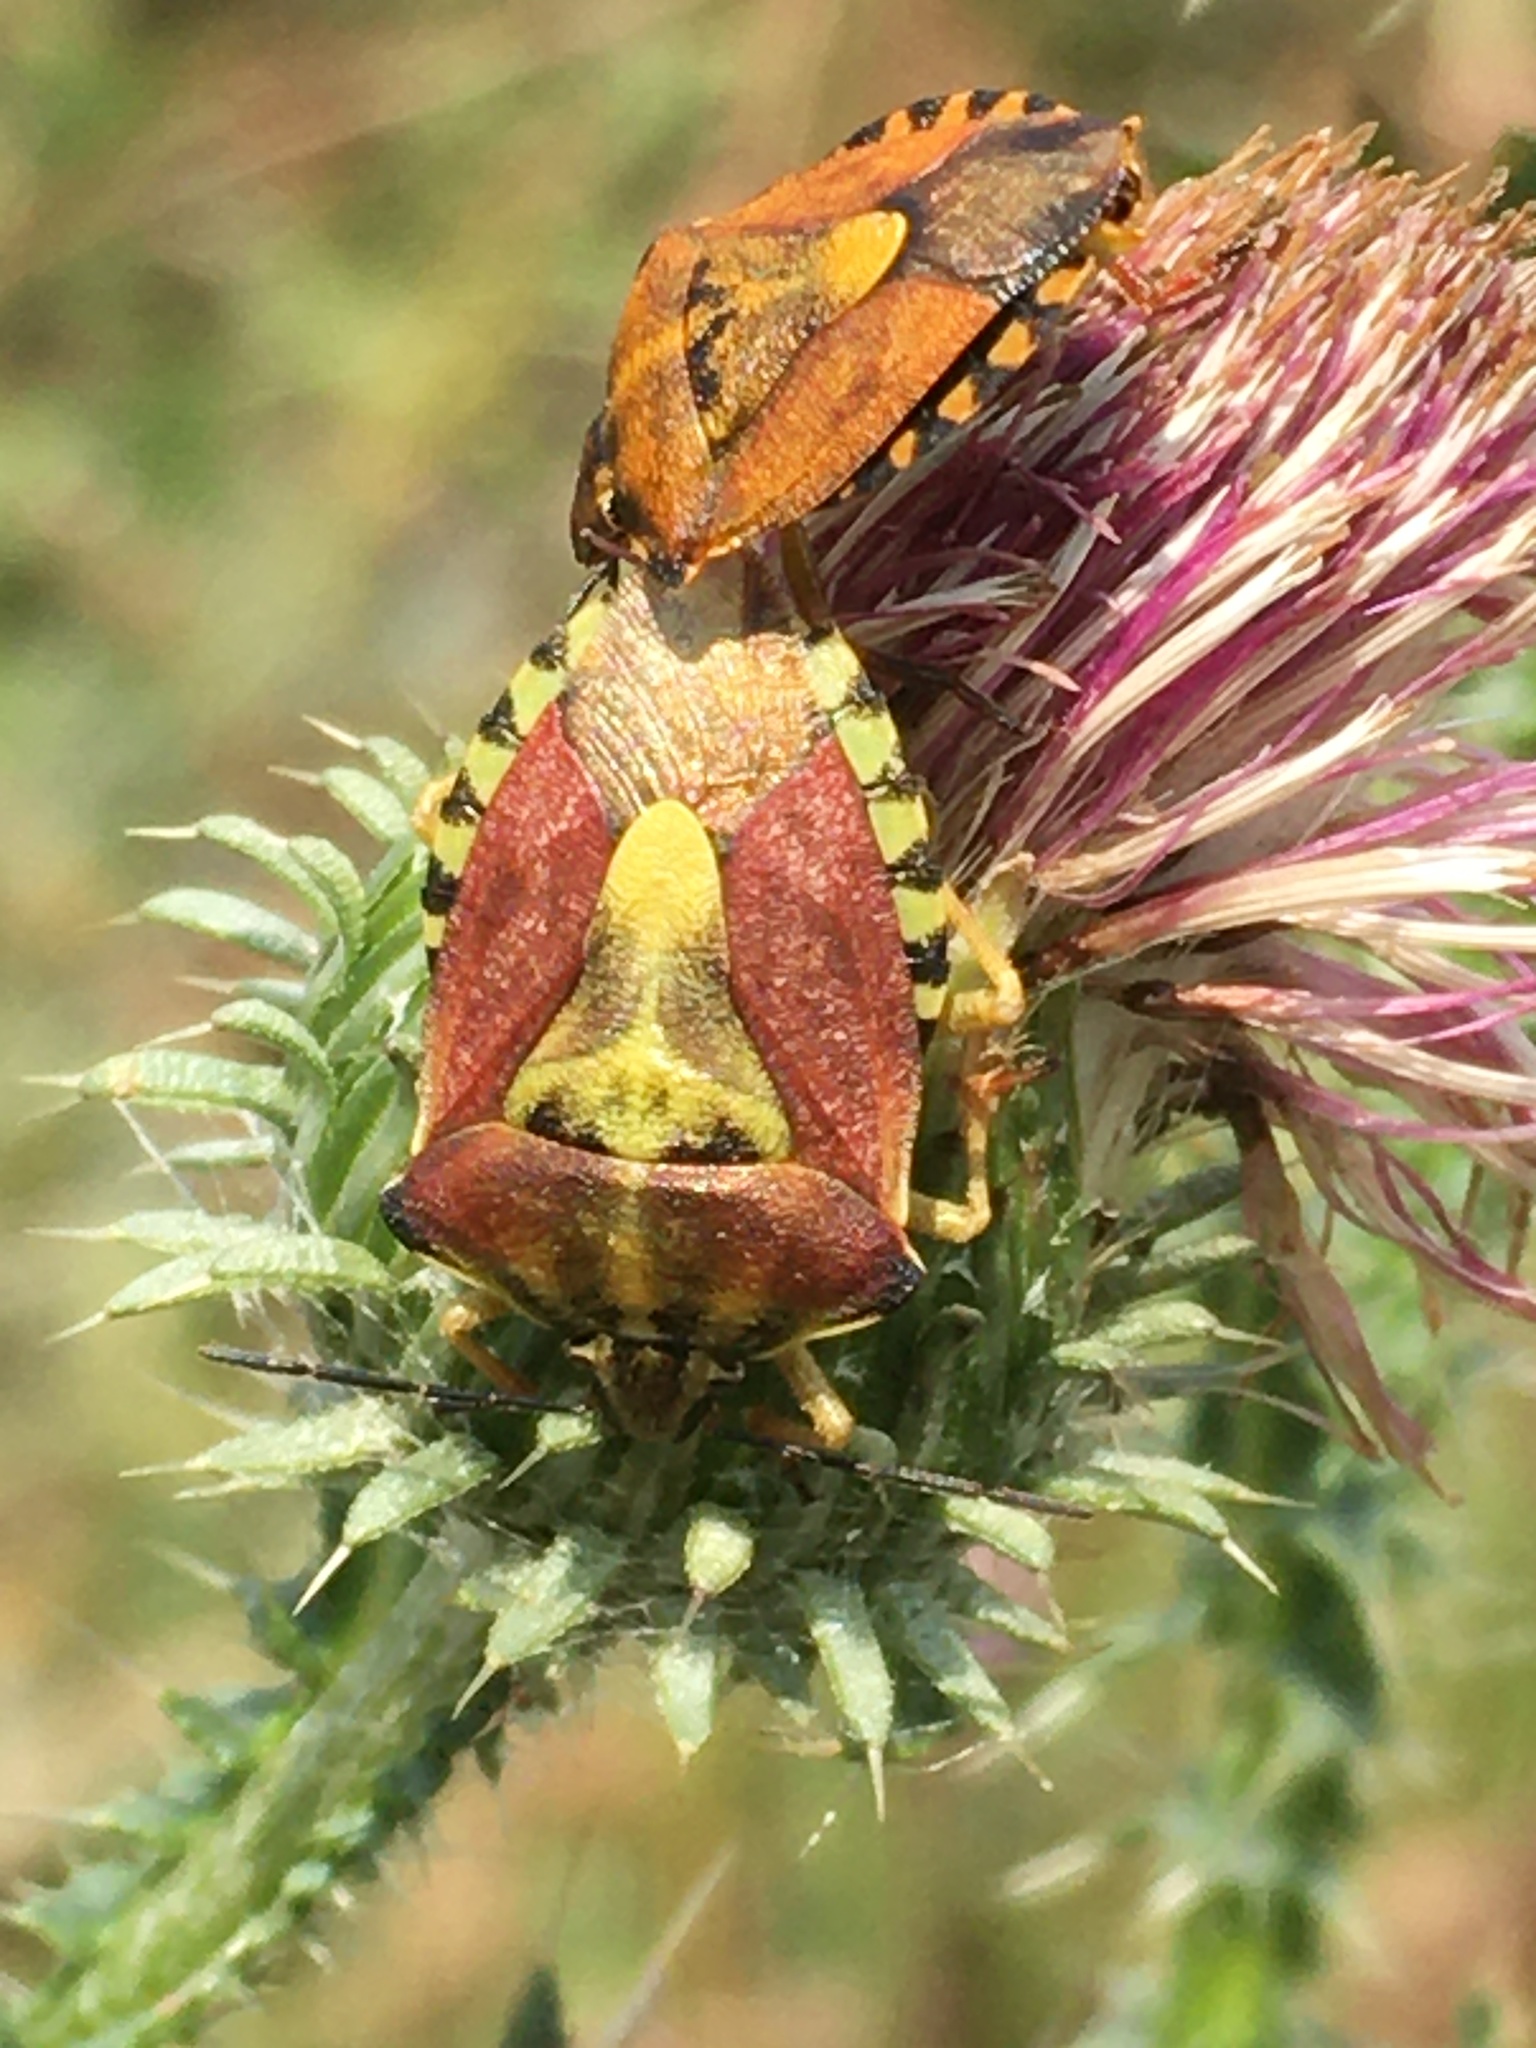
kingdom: Animalia
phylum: Arthropoda
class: Insecta
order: Hemiptera
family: Pentatomidae
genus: Carpocoris
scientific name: Carpocoris purpureipennis
